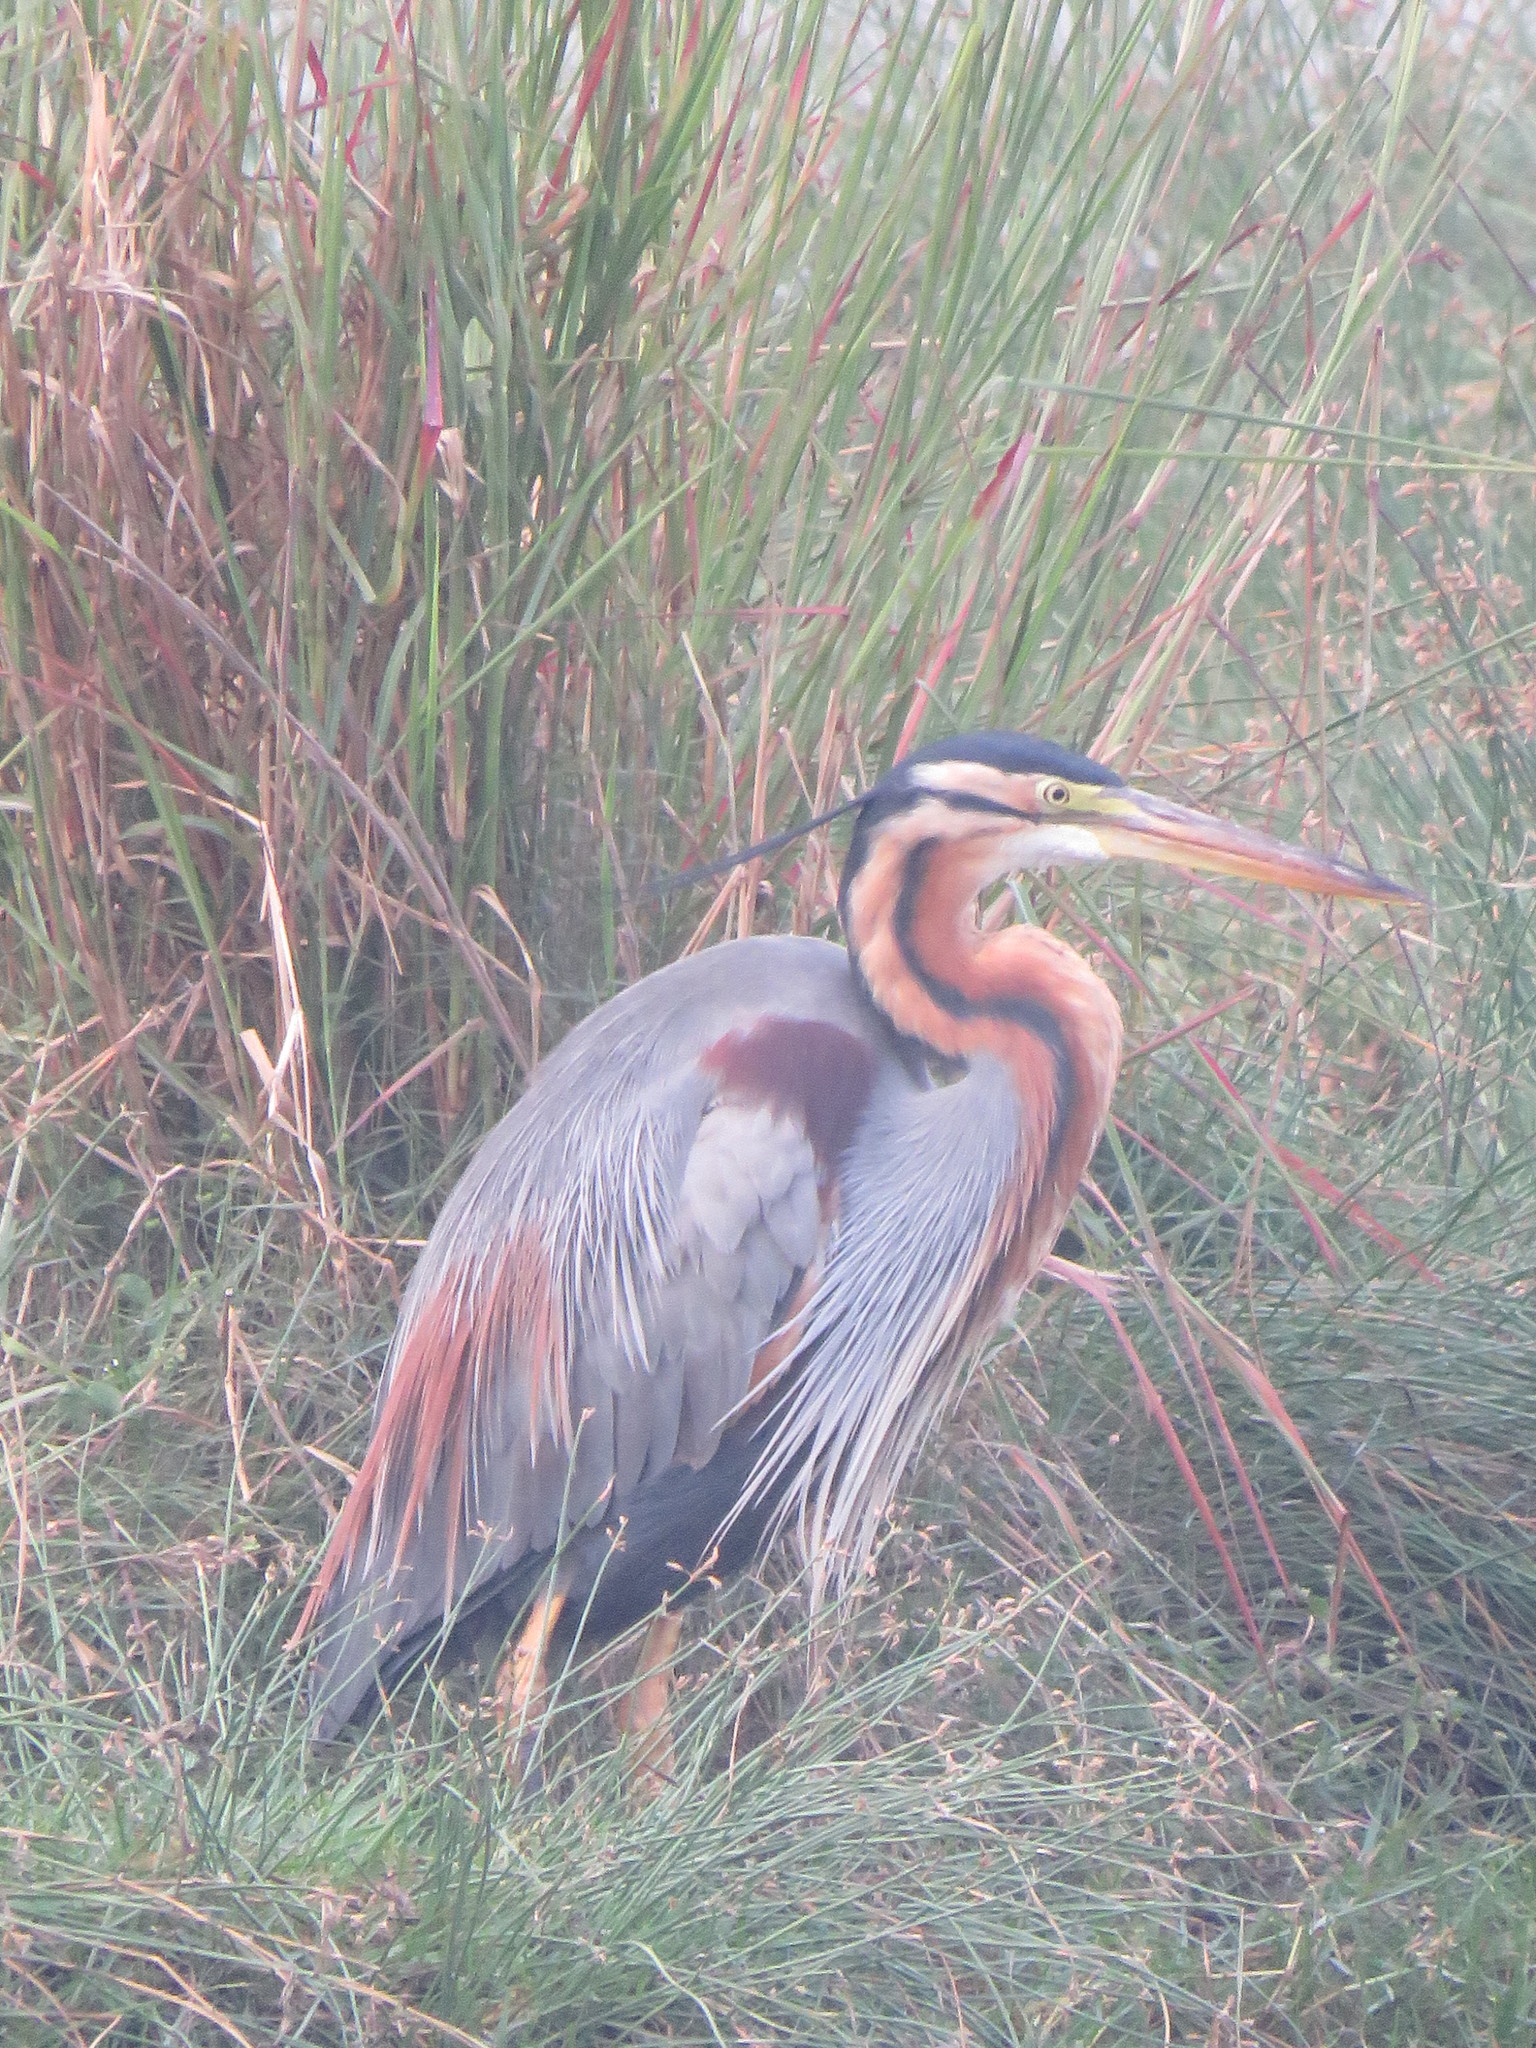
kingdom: Animalia
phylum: Chordata
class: Aves
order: Pelecaniformes
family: Ardeidae
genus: Ardea
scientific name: Ardea purpurea
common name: Purple heron
